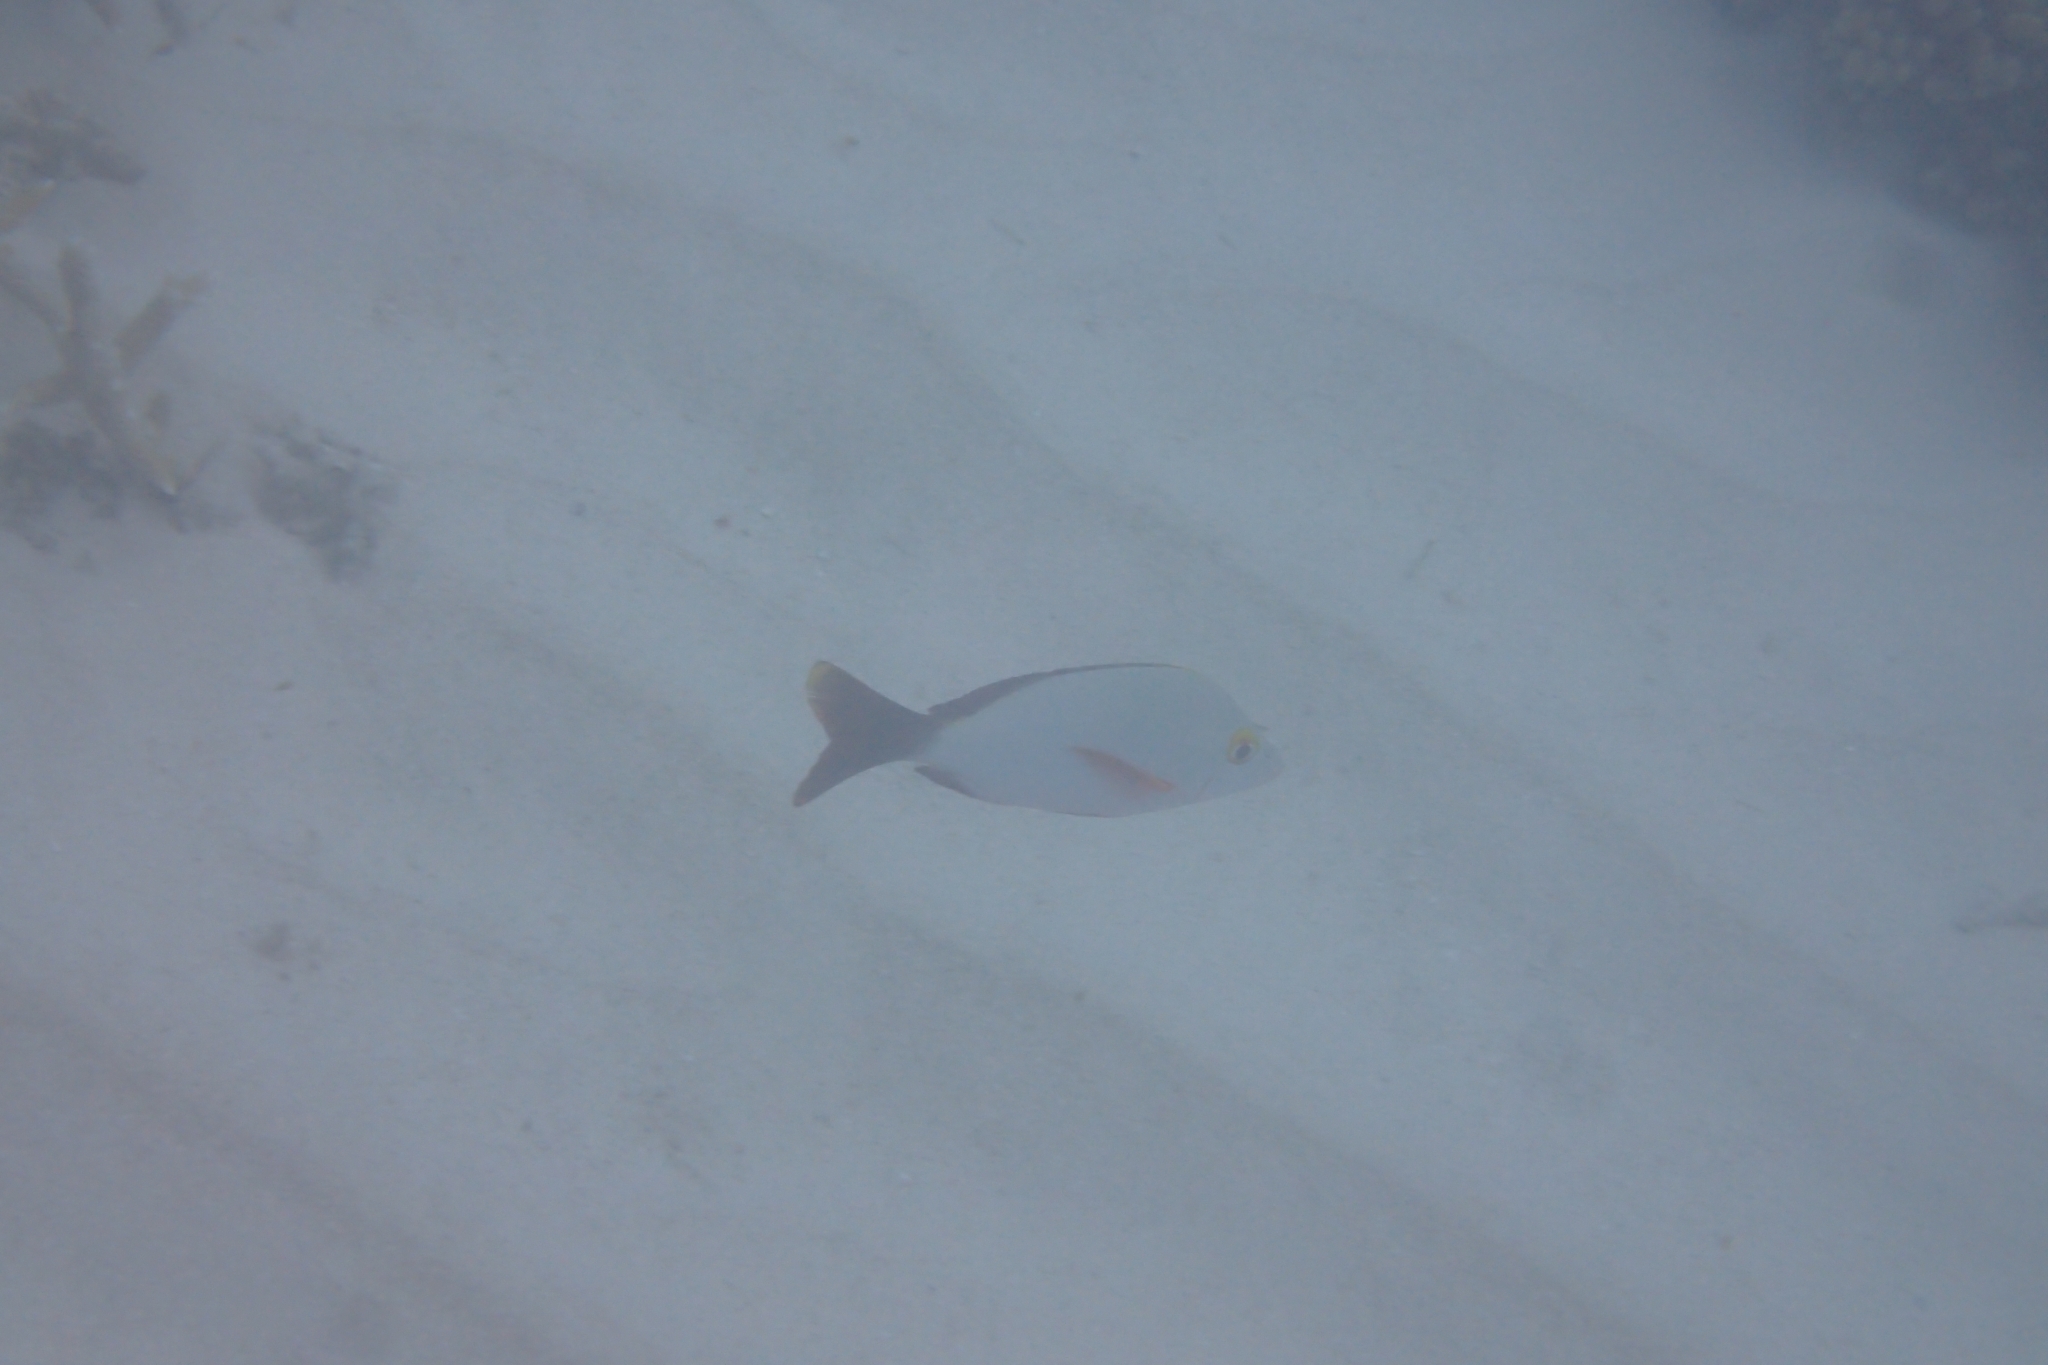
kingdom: Animalia
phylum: Chordata
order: Perciformes
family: Lutjanidae
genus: Lutjanus
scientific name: Lutjanus gibbus
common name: Humpback snapper
